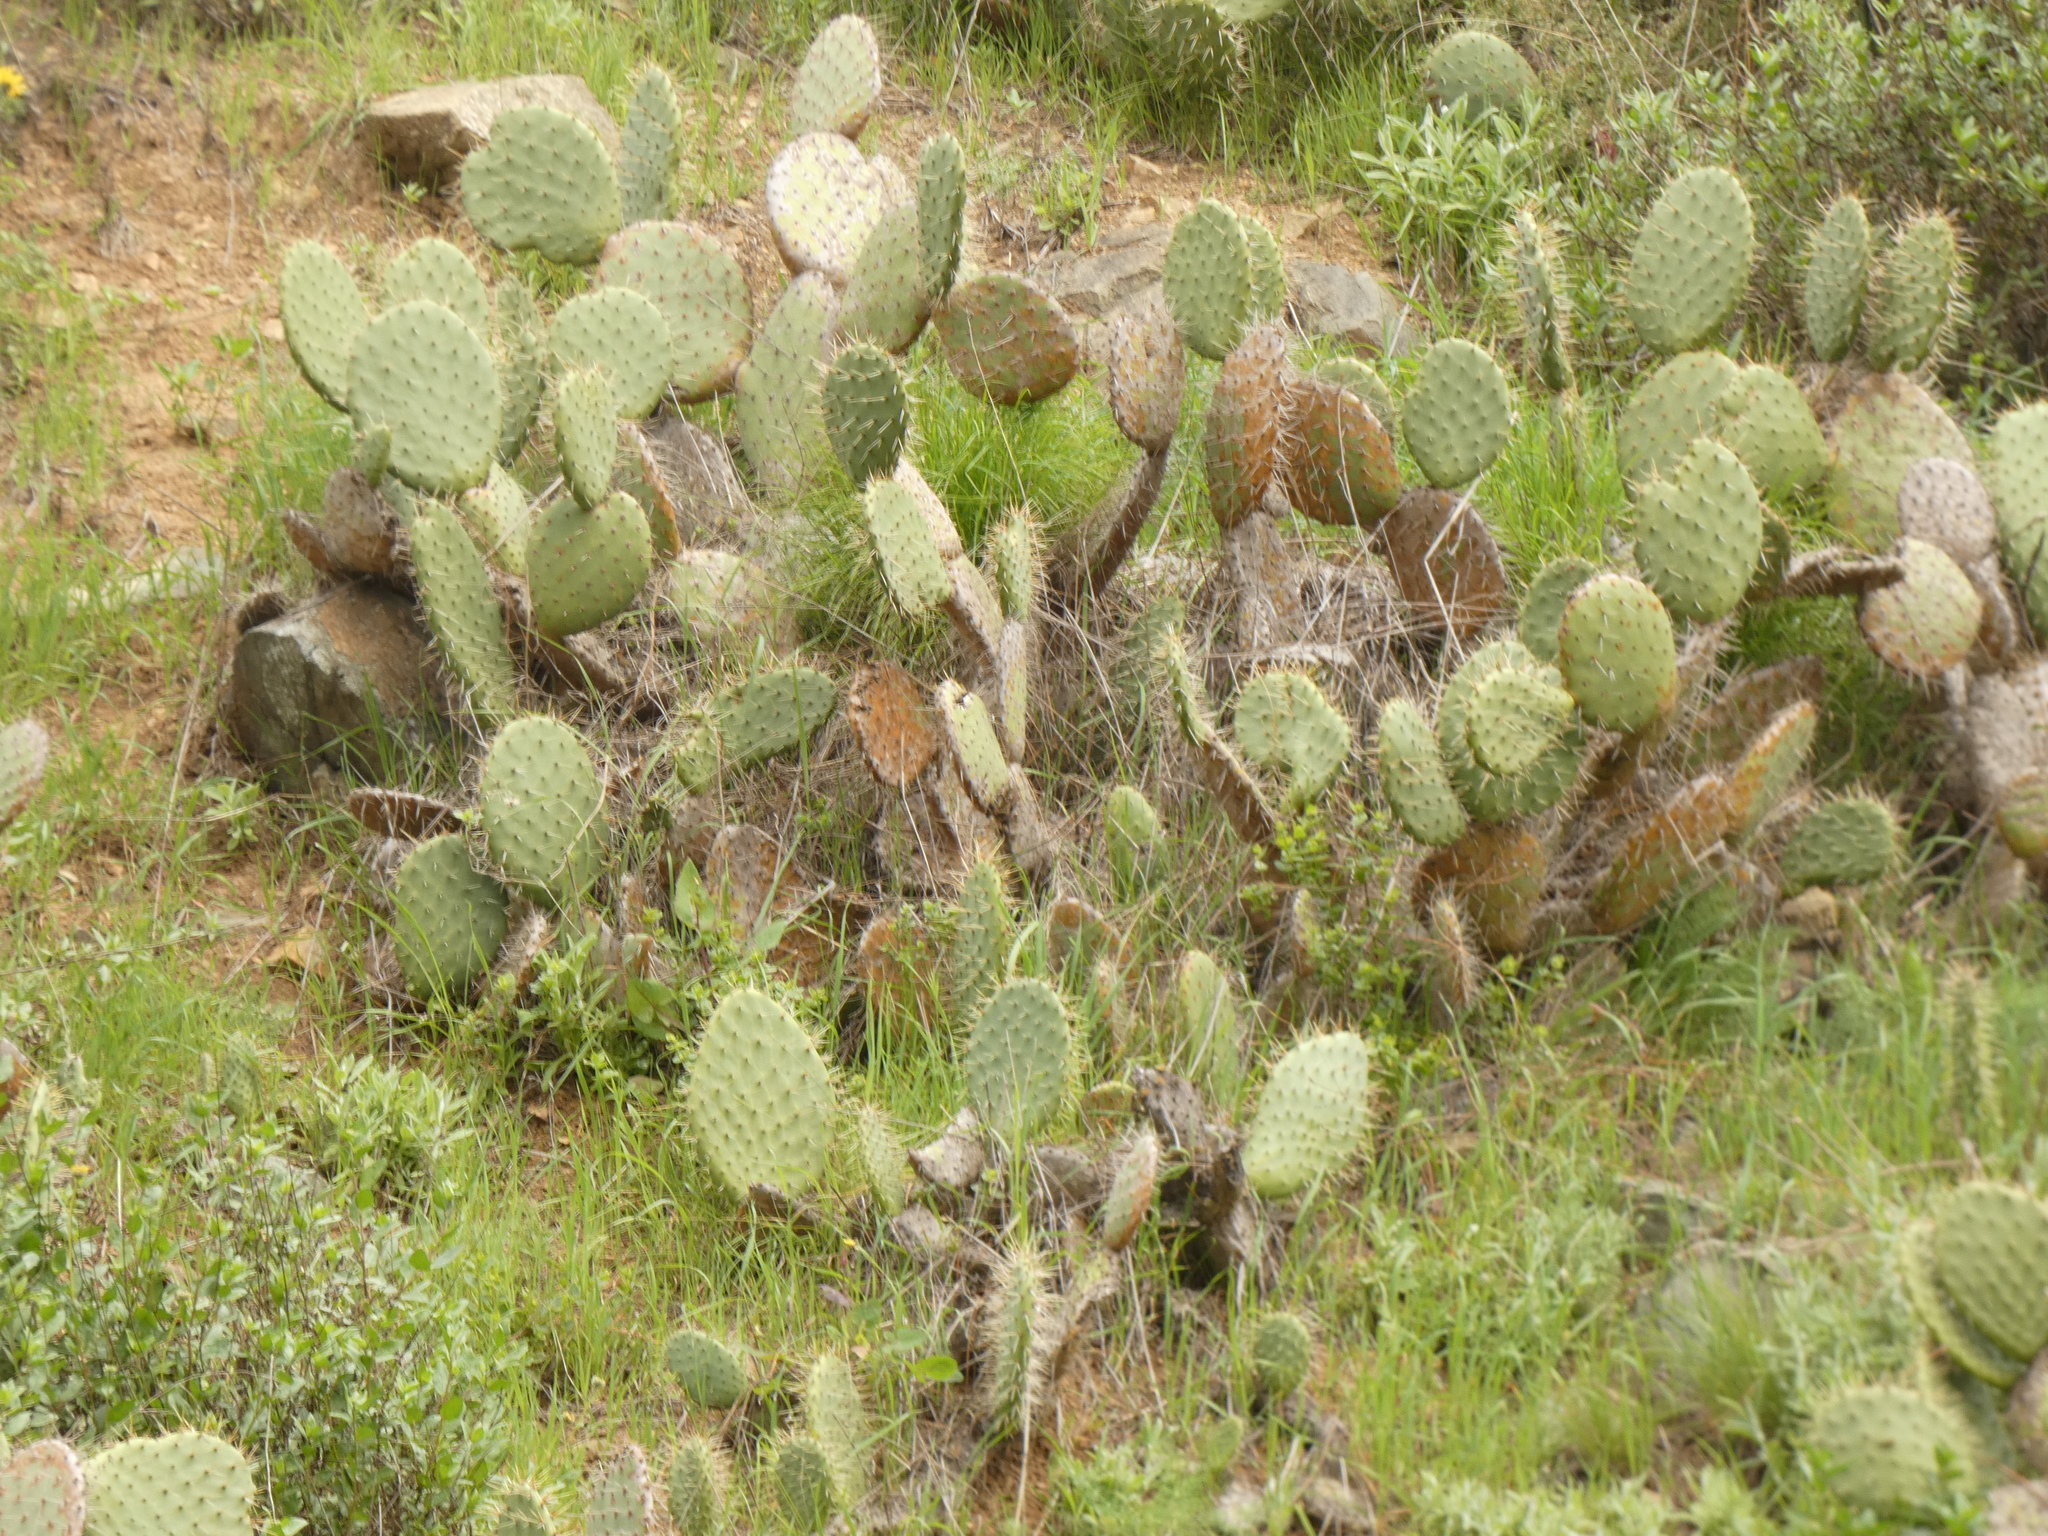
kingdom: Plantae
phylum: Tracheophyta
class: Magnoliopsida
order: Caryophyllales
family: Cactaceae
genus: Opuntia
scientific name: Opuntia littoralis
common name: Coastal prickly-pear
